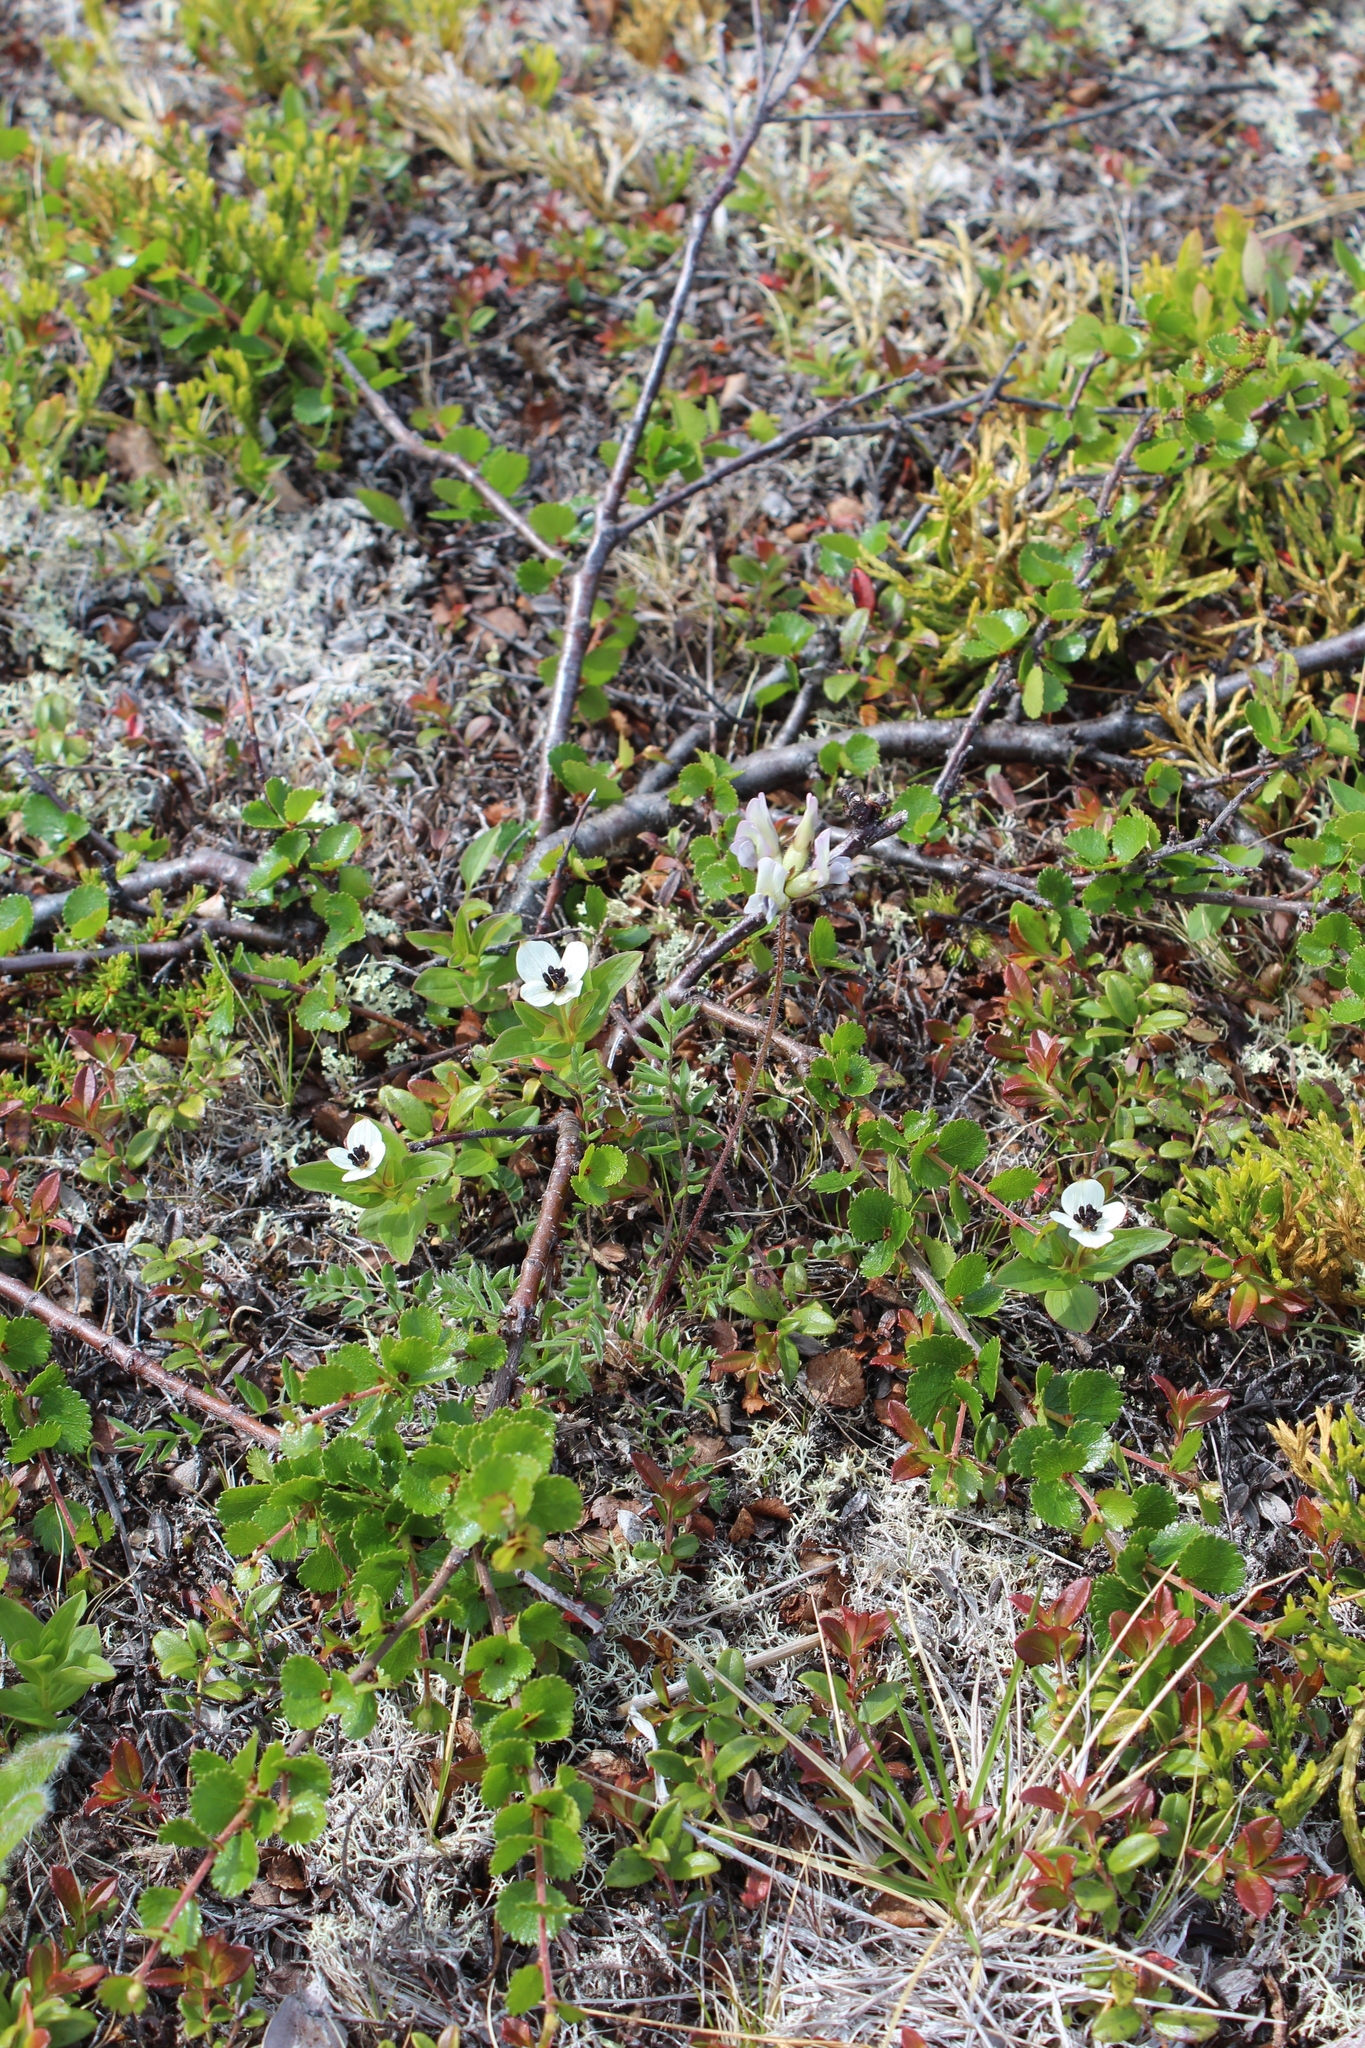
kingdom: Plantae
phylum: Tracheophyta
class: Magnoliopsida
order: Fabales
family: Fabaceae
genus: Oxytropis
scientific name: Oxytropis sordida
